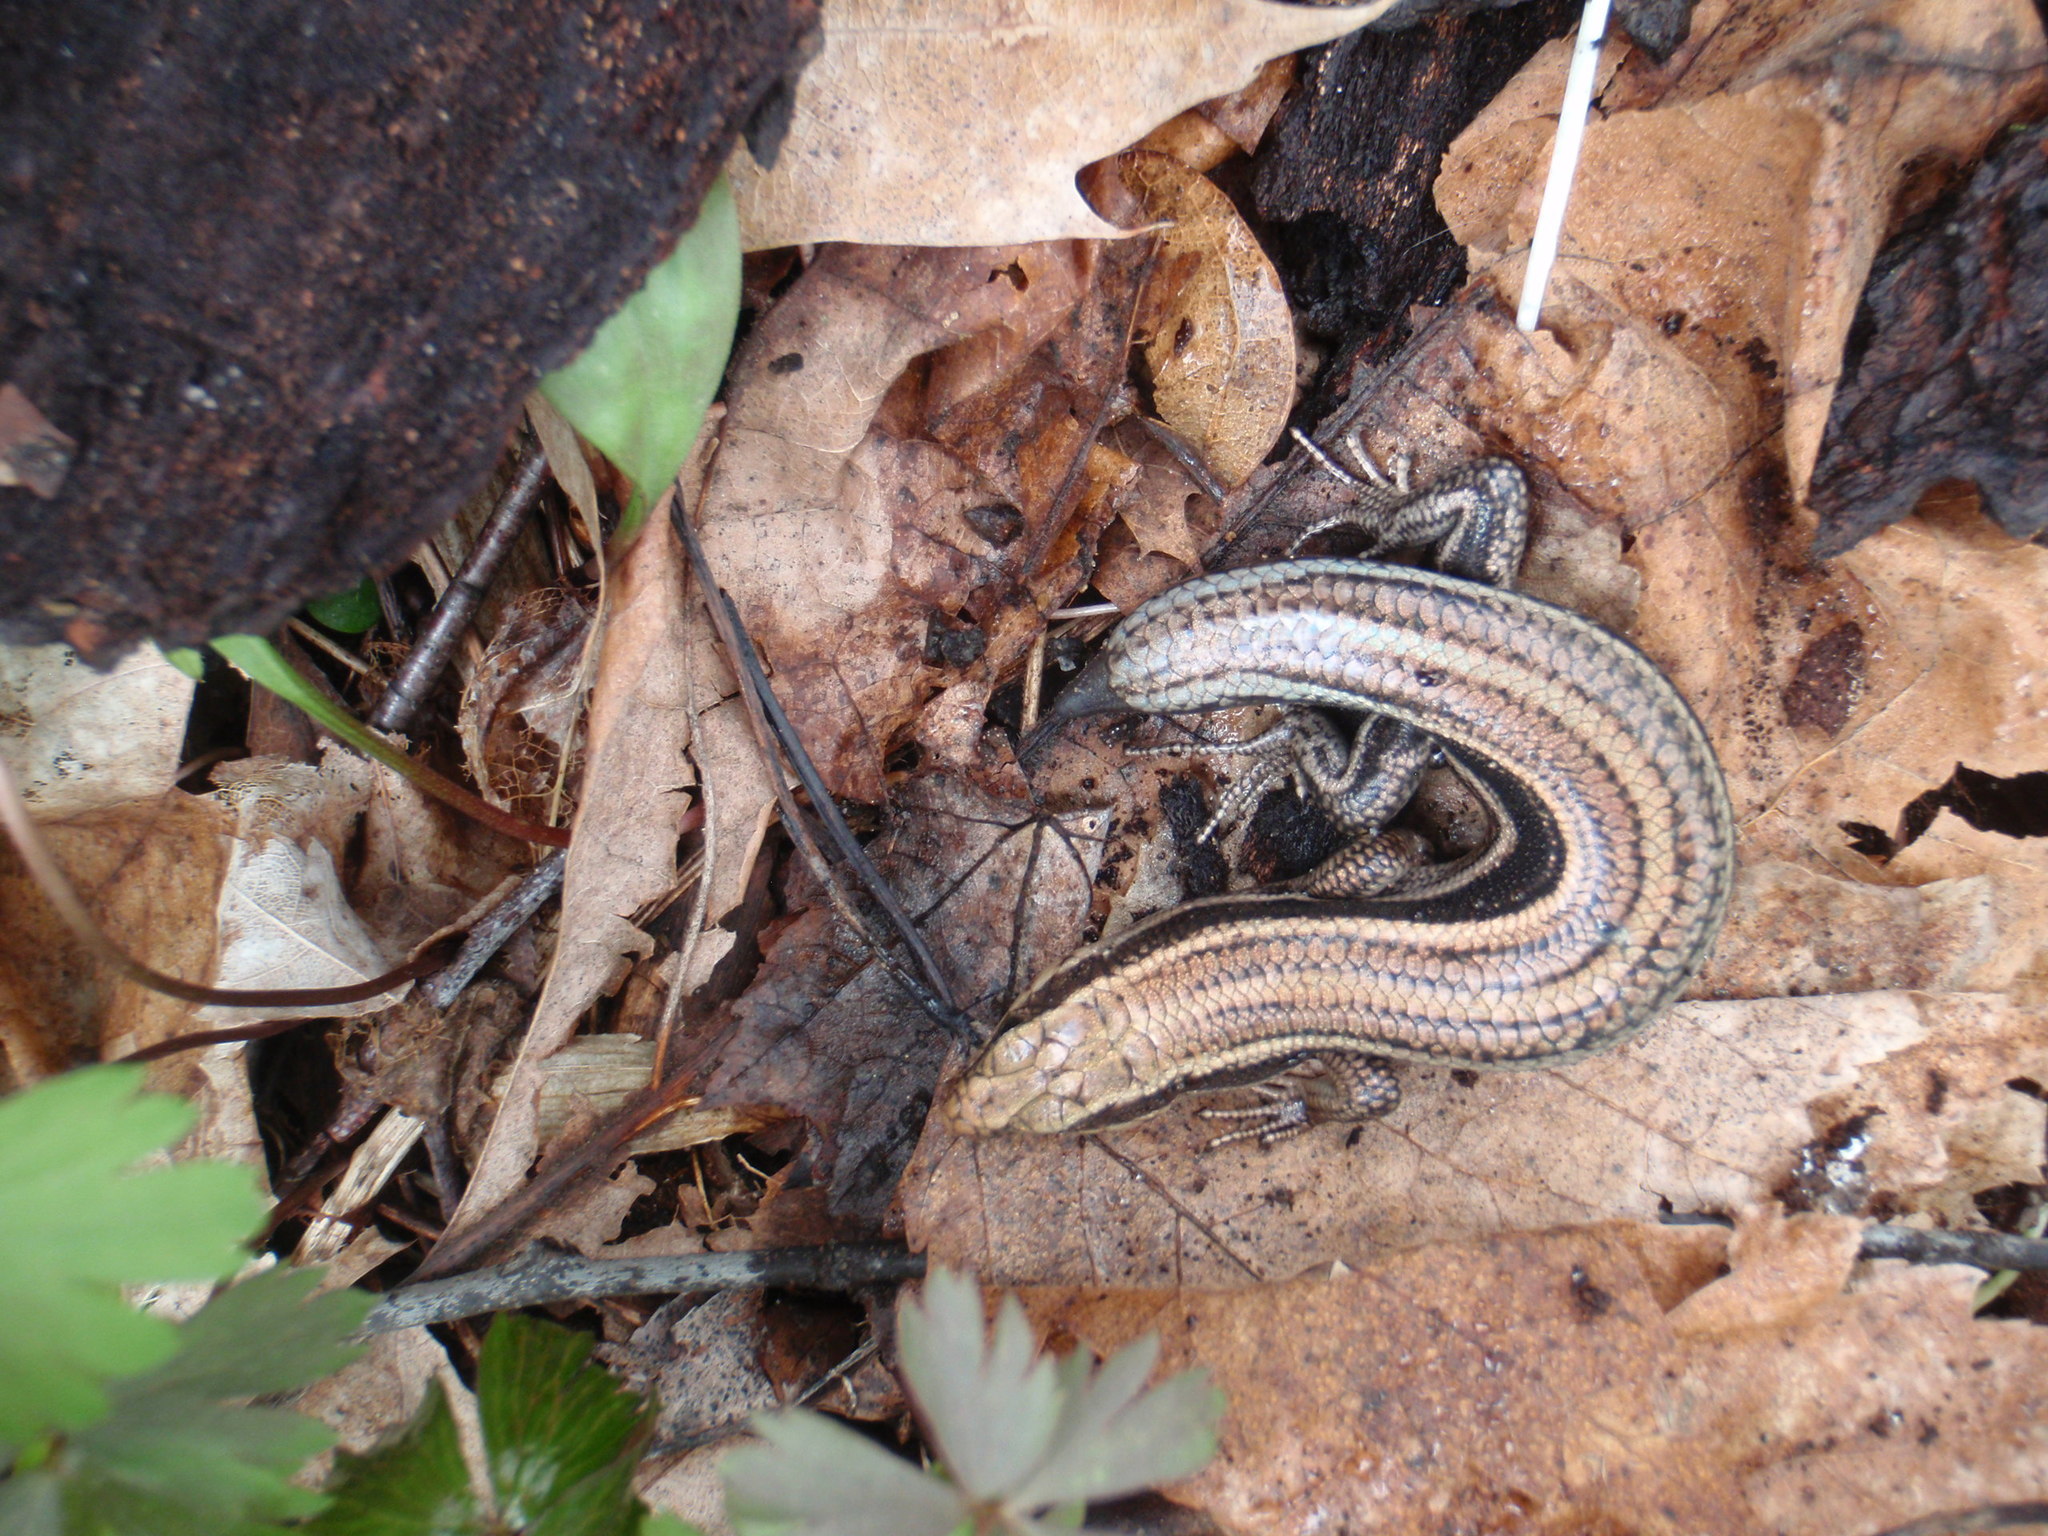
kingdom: Animalia
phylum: Chordata
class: Squamata
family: Scincidae
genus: Plestiodon
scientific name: Plestiodon fasciatus
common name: Five-lined skink
